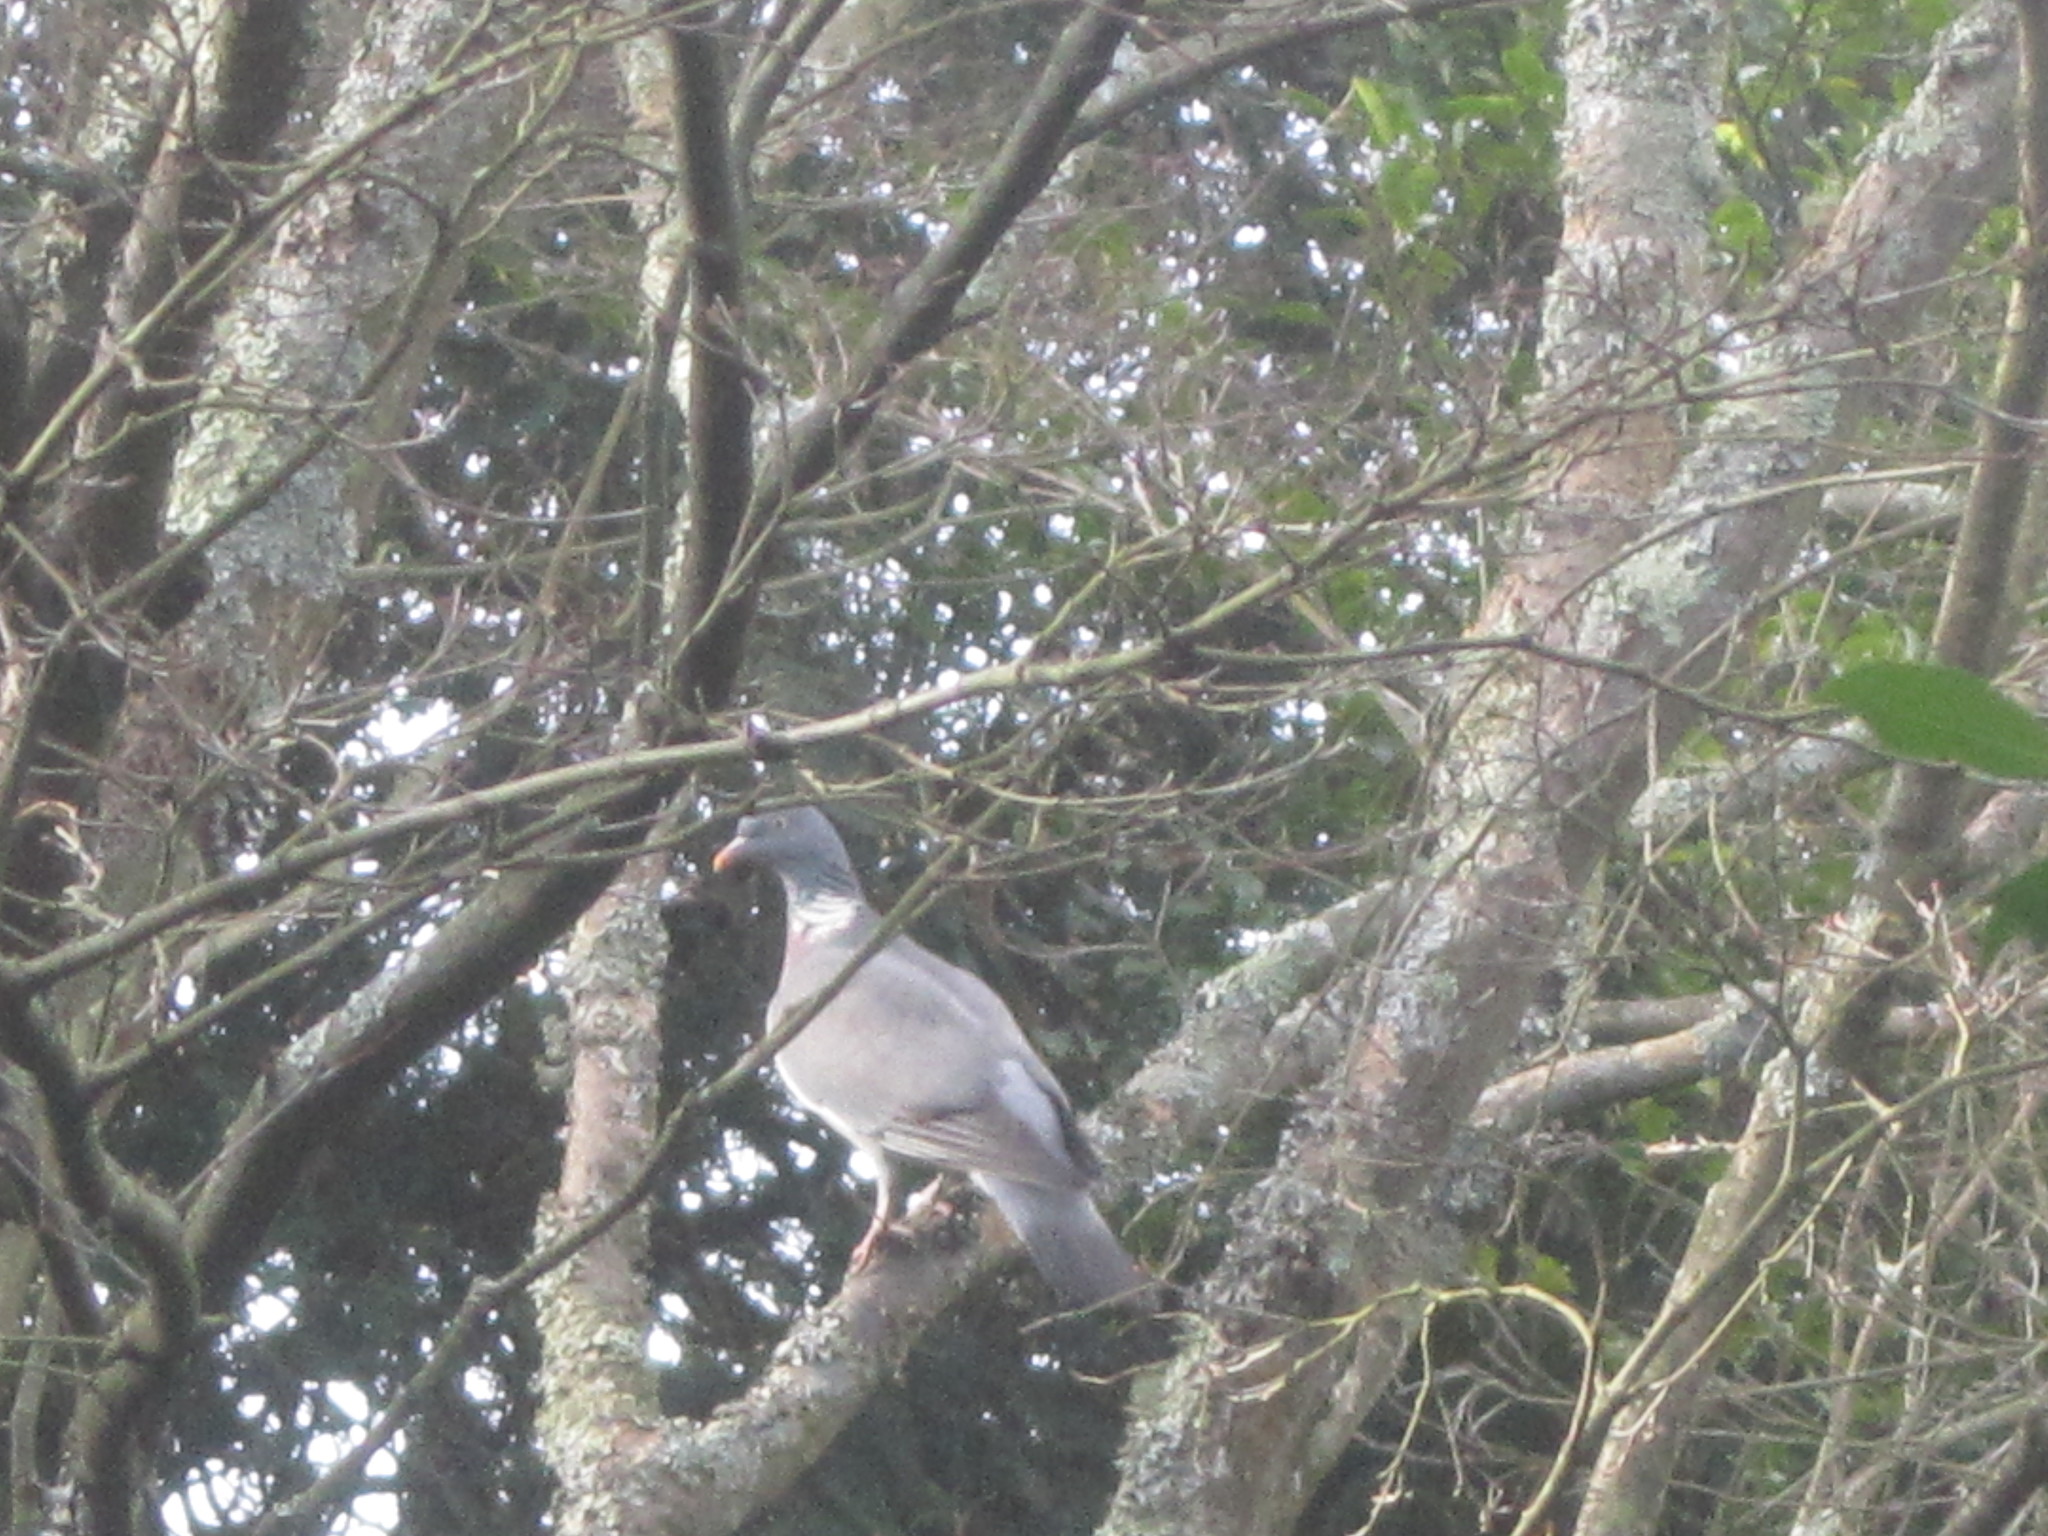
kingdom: Animalia
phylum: Chordata
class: Aves
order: Columbiformes
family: Columbidae
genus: Columba
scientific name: Columba palumbus
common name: Common wood pigeon
